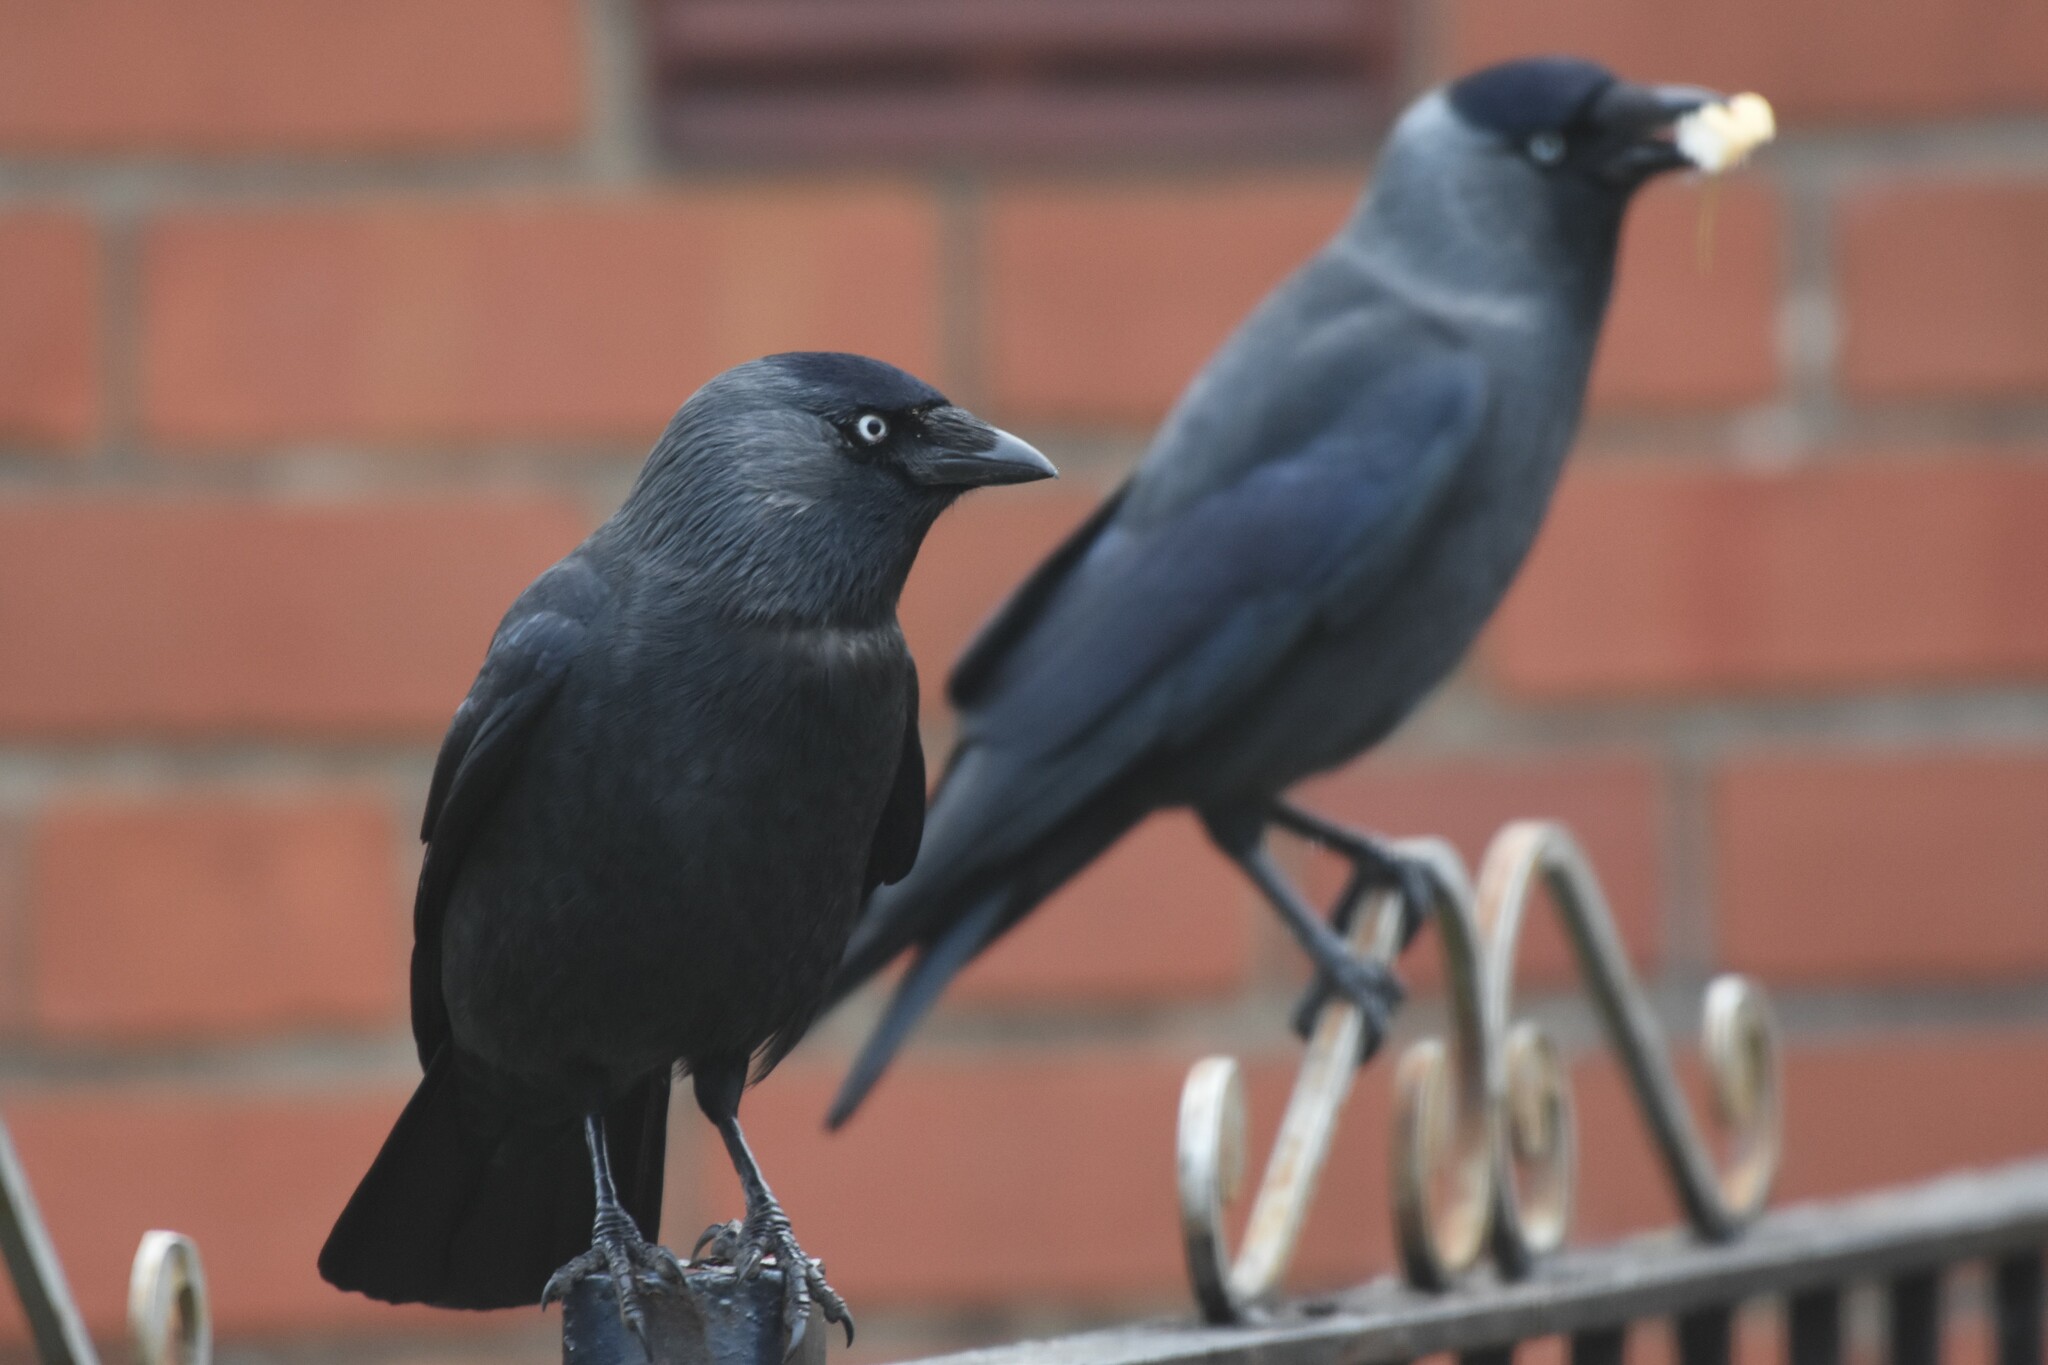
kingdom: Animalia
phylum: Chordata
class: Aves
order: Passeriformes
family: Corvidae
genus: Coloeus
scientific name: Coloeus monedula
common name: Western jackdaw
